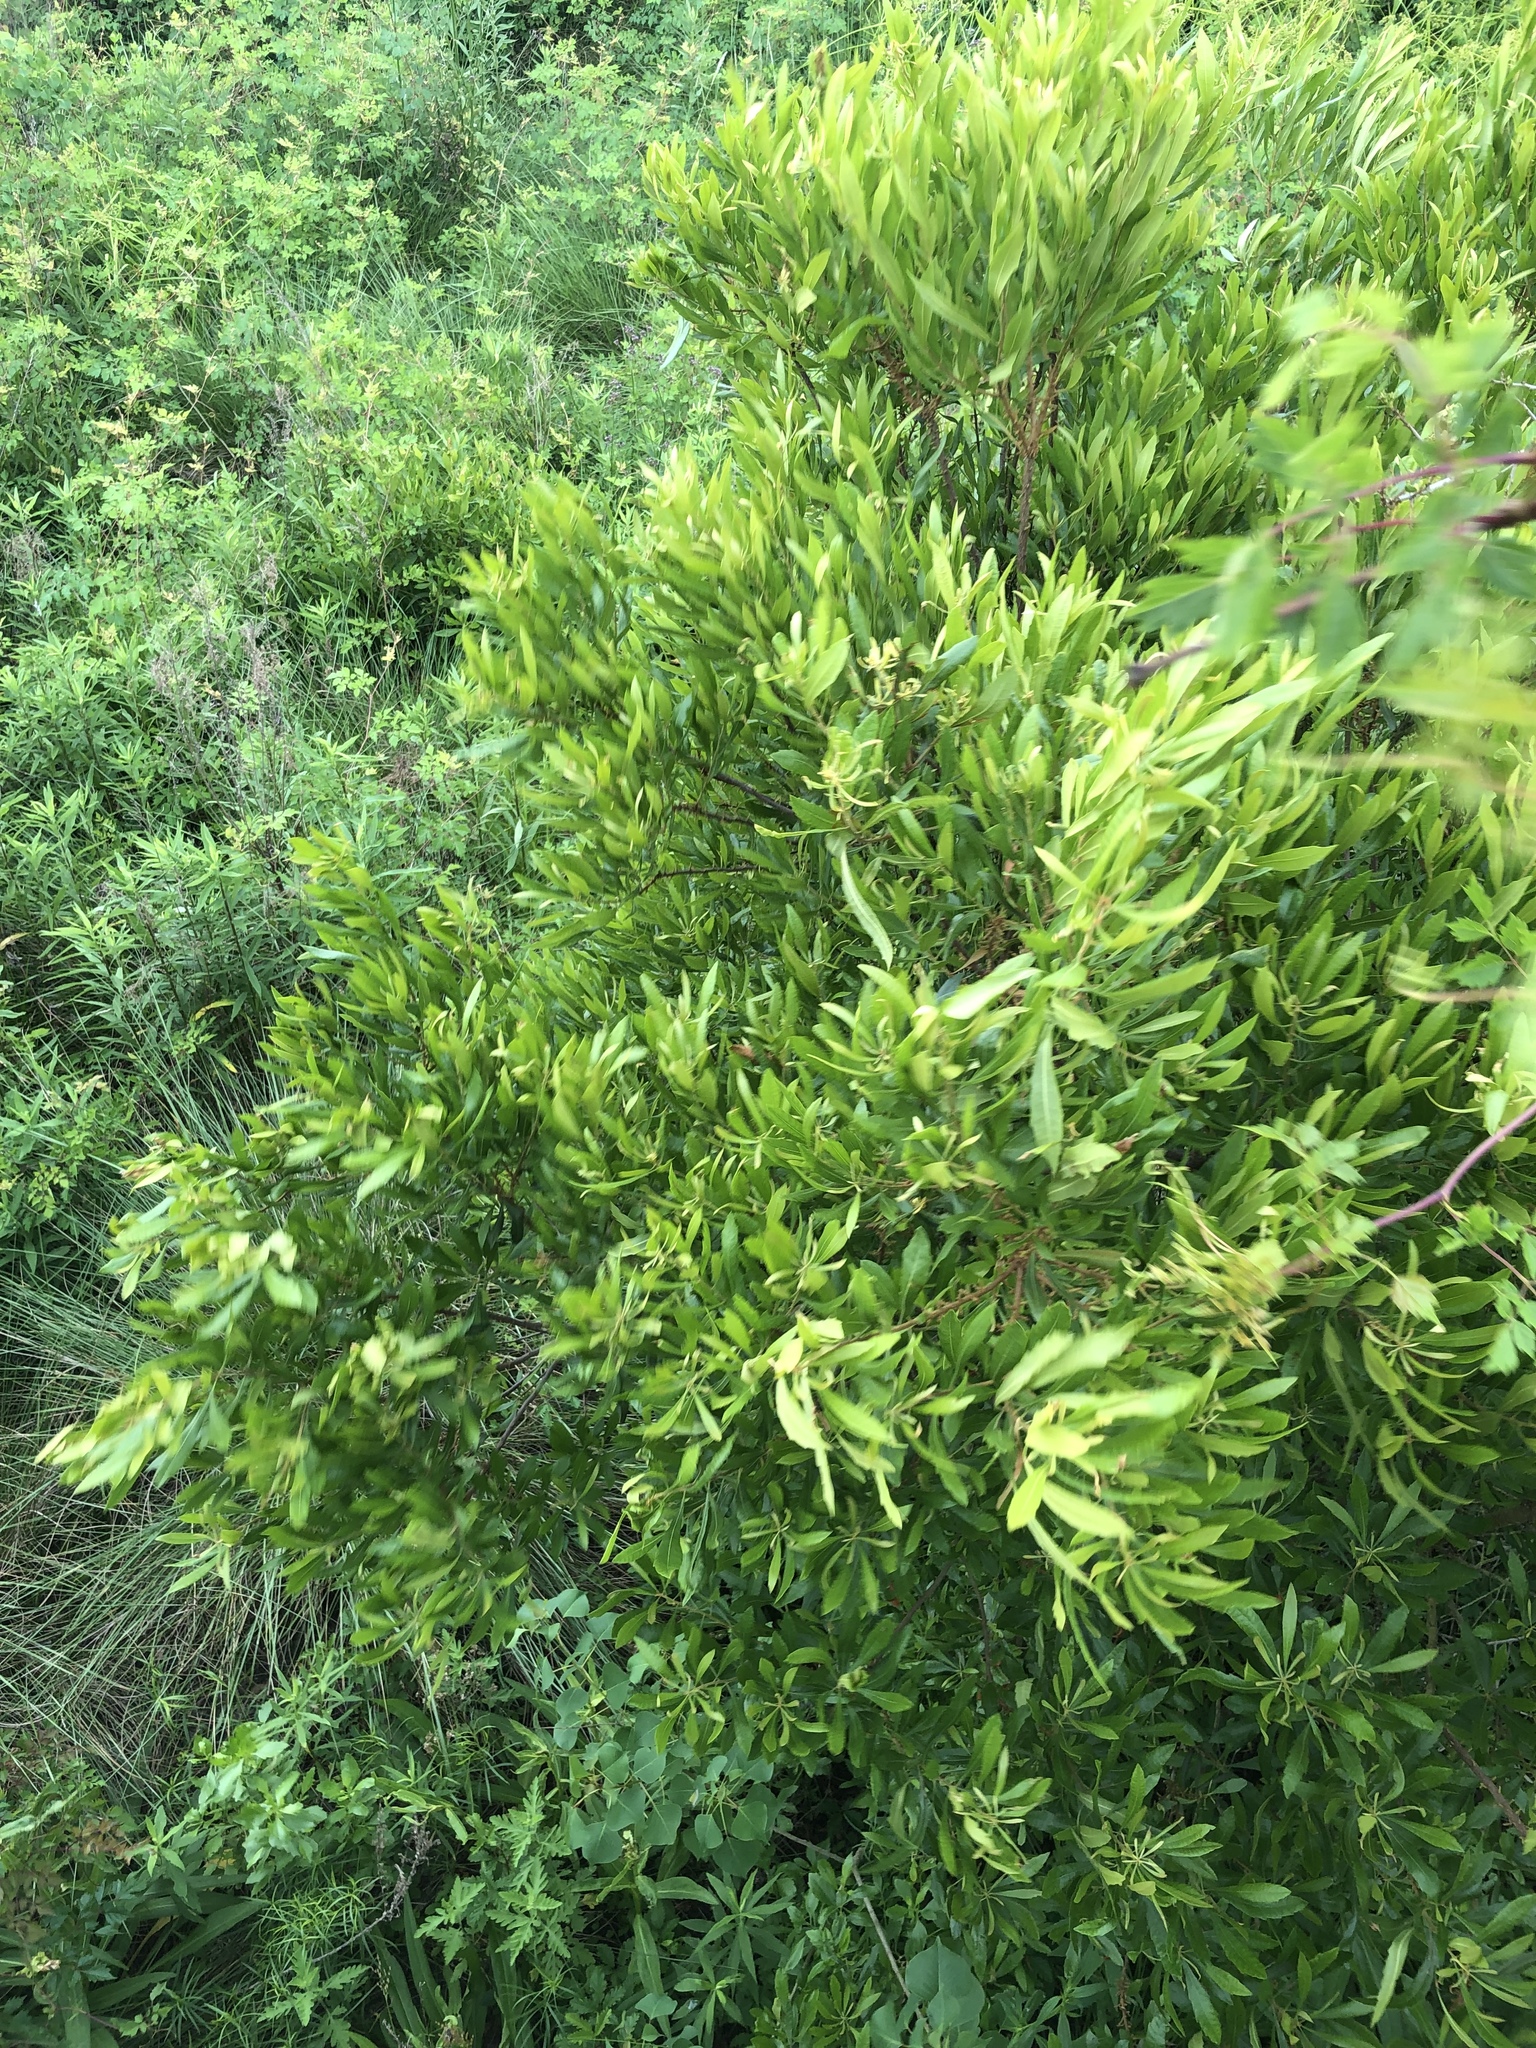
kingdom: Plantae
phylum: Tracheophyta
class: Magnoliopsida
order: Fagales
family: Myricaceae
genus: Morella
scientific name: Morella cerifera
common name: Wax myrtle
